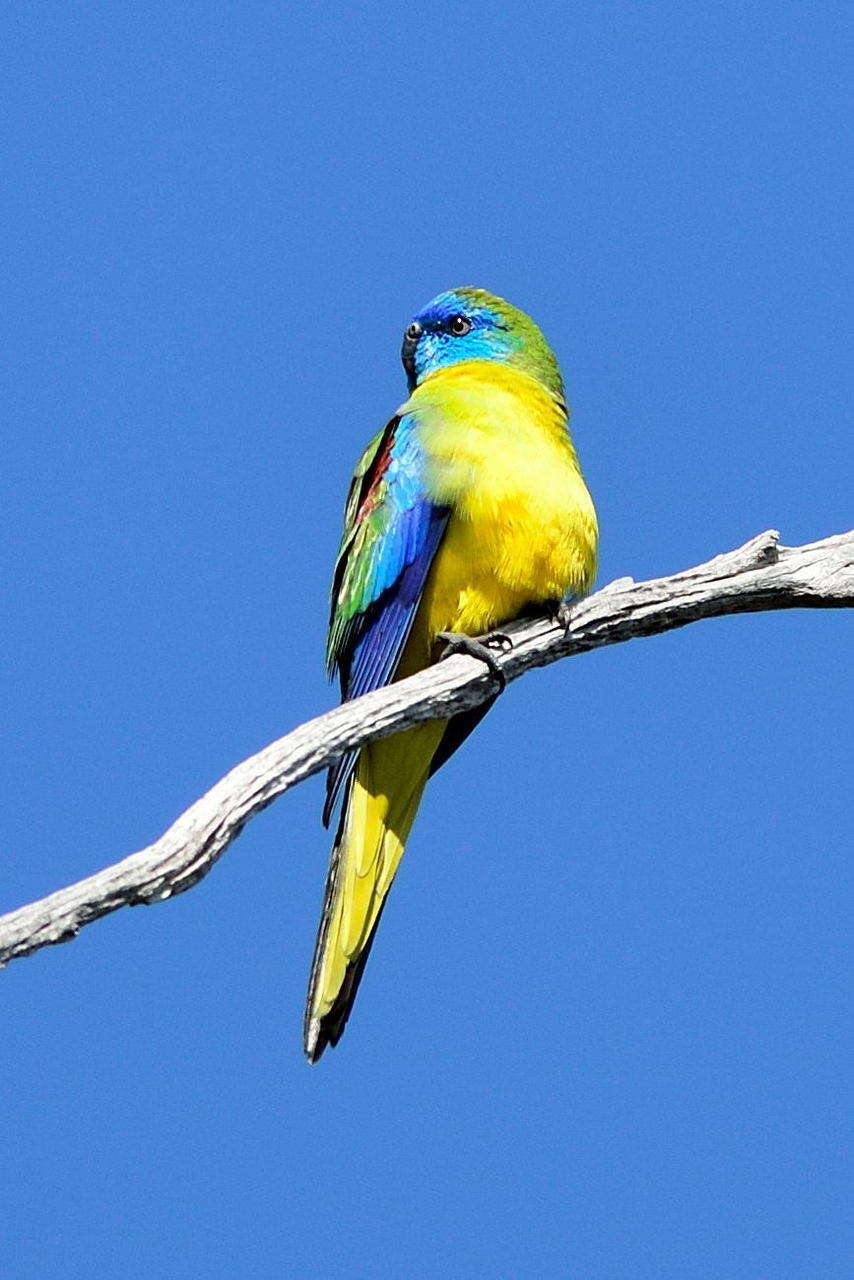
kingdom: Animalia
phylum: Chordata
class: Aves
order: Psittaciformes
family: Psittacidae
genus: Neophema
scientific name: Neophema pulchella
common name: Turquoise parrot
